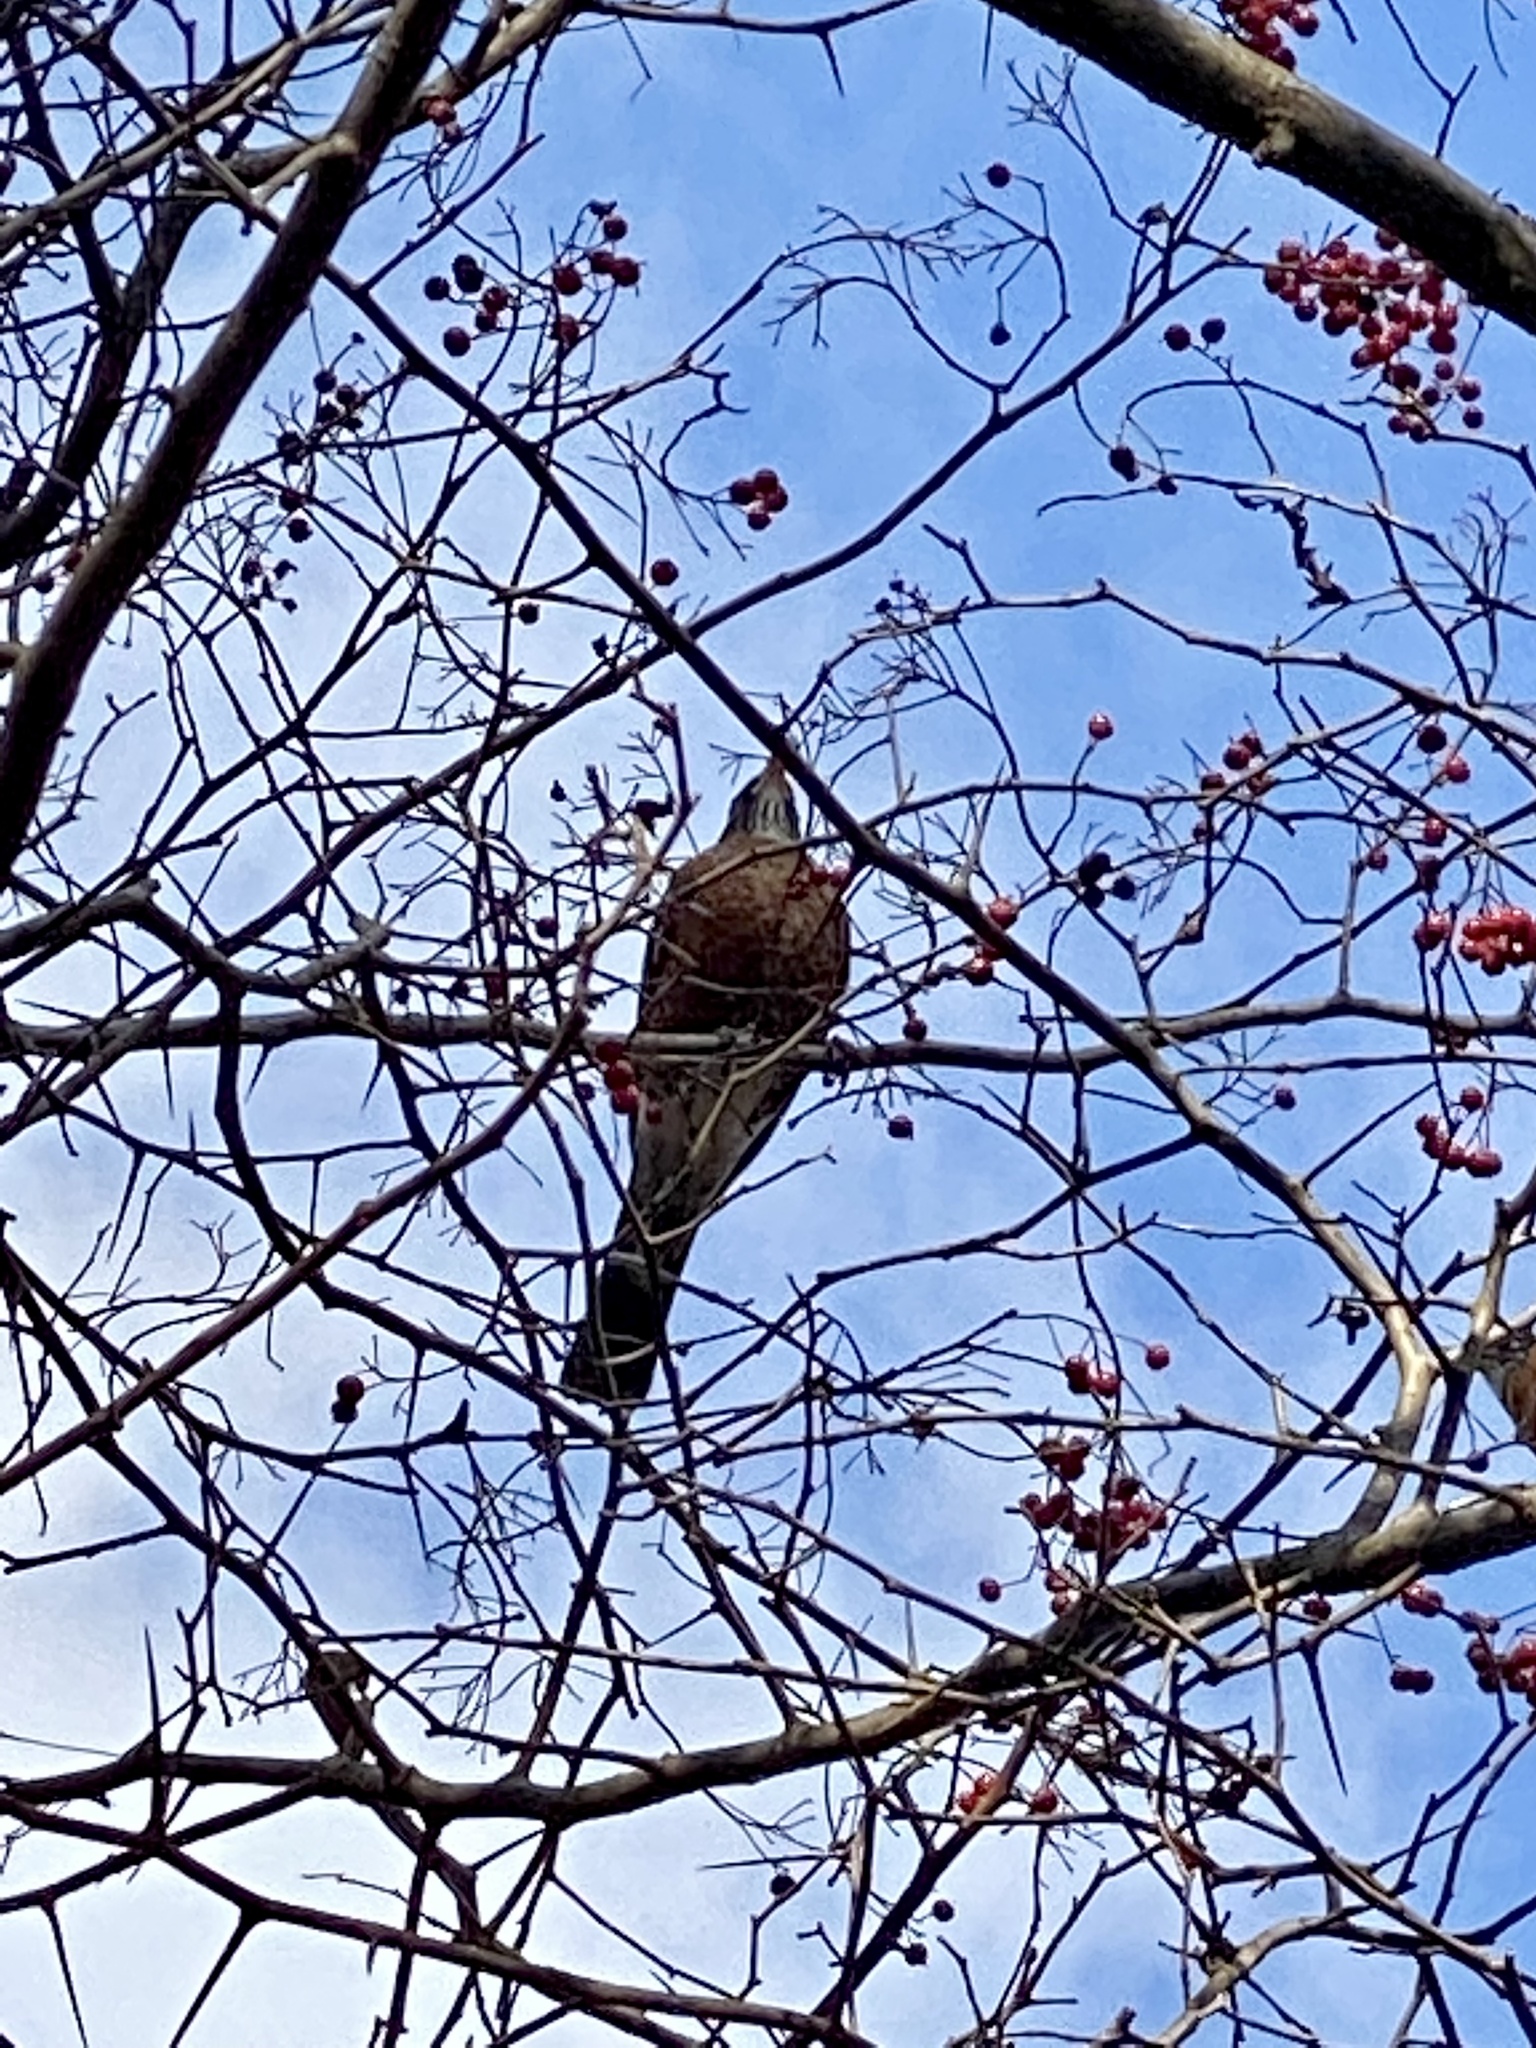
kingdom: Animalia
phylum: Chordata
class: Aves
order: Passeriformes
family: Turdidae
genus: Turdus
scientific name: Turdus migratorius
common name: American robin
